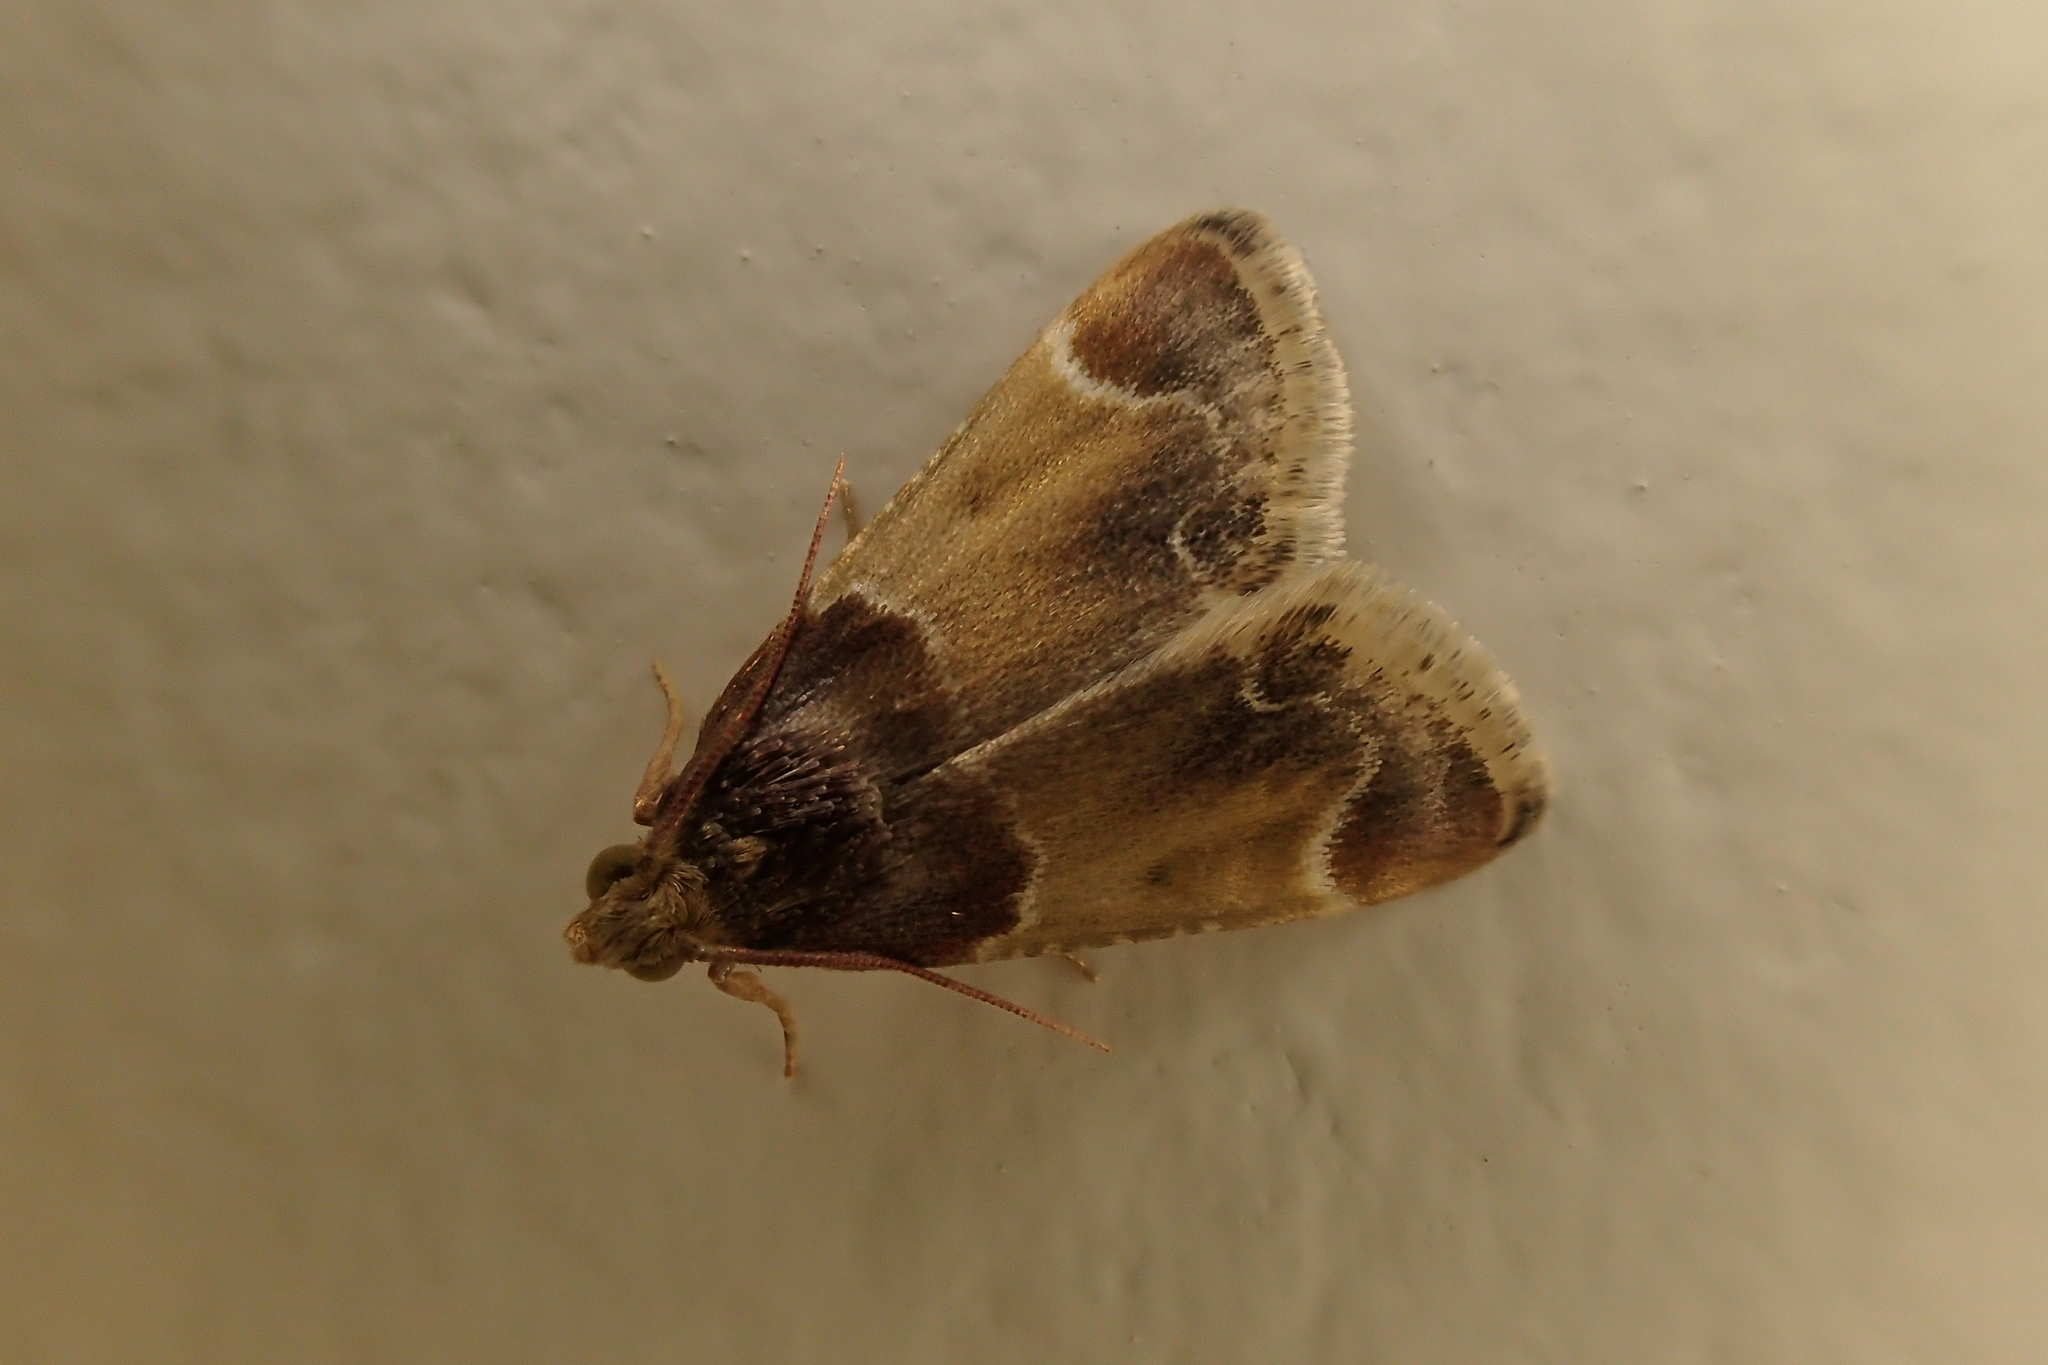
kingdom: Animalia
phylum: Arthropoda
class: Insecta
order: Lepidoptera
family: Pyralidae
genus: Pyralis
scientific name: Pyralis farinalis
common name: Meal moth
